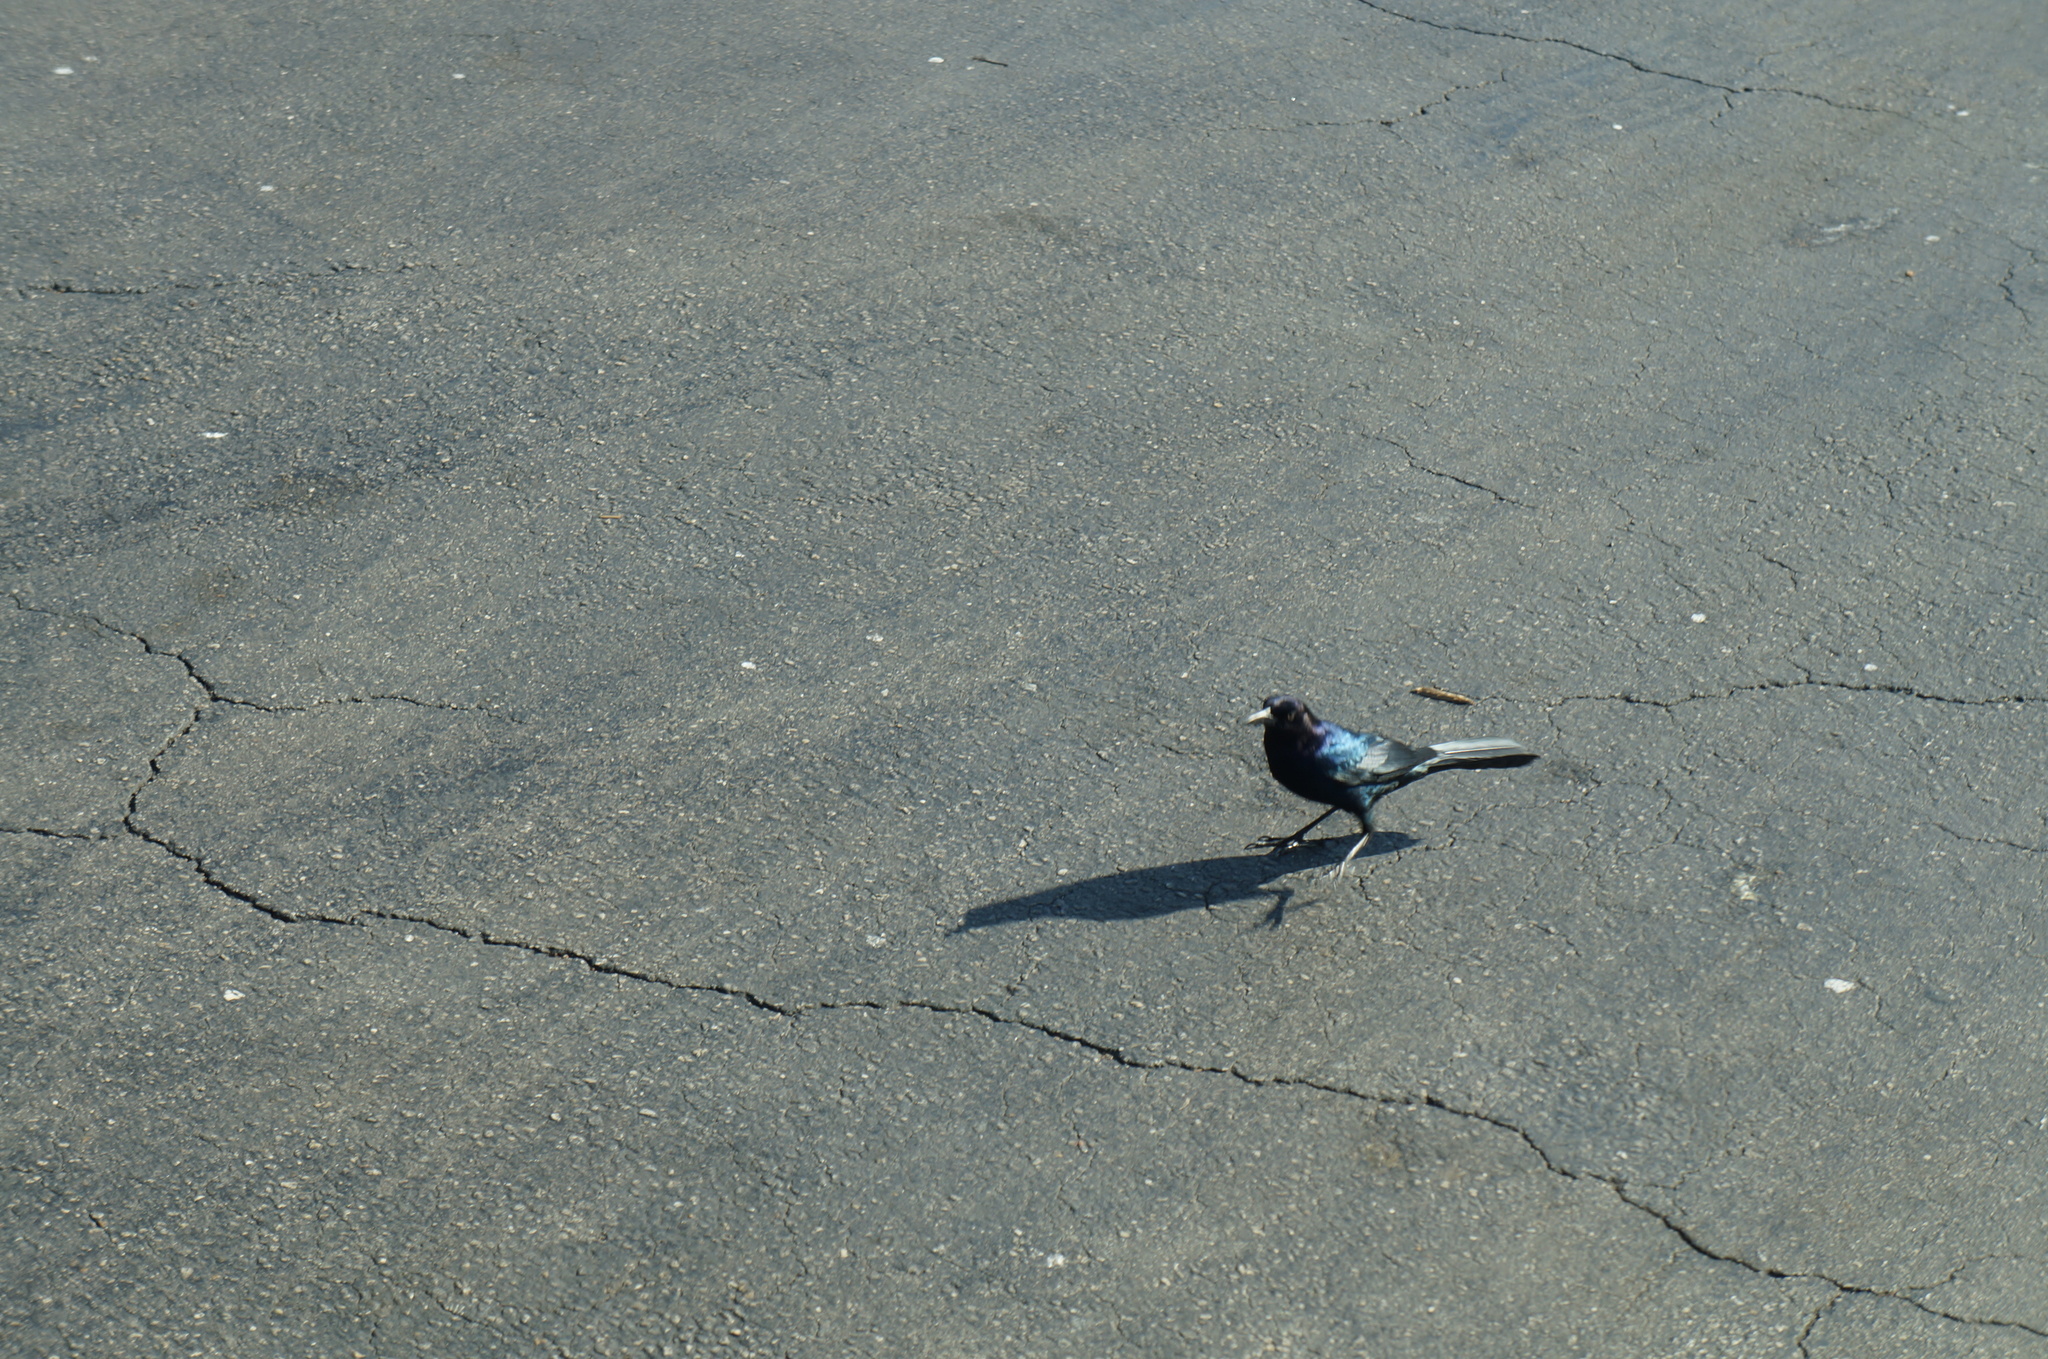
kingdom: Animalia
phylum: Chordata
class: Aves
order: Passeriformes
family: Icteridae
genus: Quiscalus
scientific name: Quiscalus major
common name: Boat-tailed grackle
